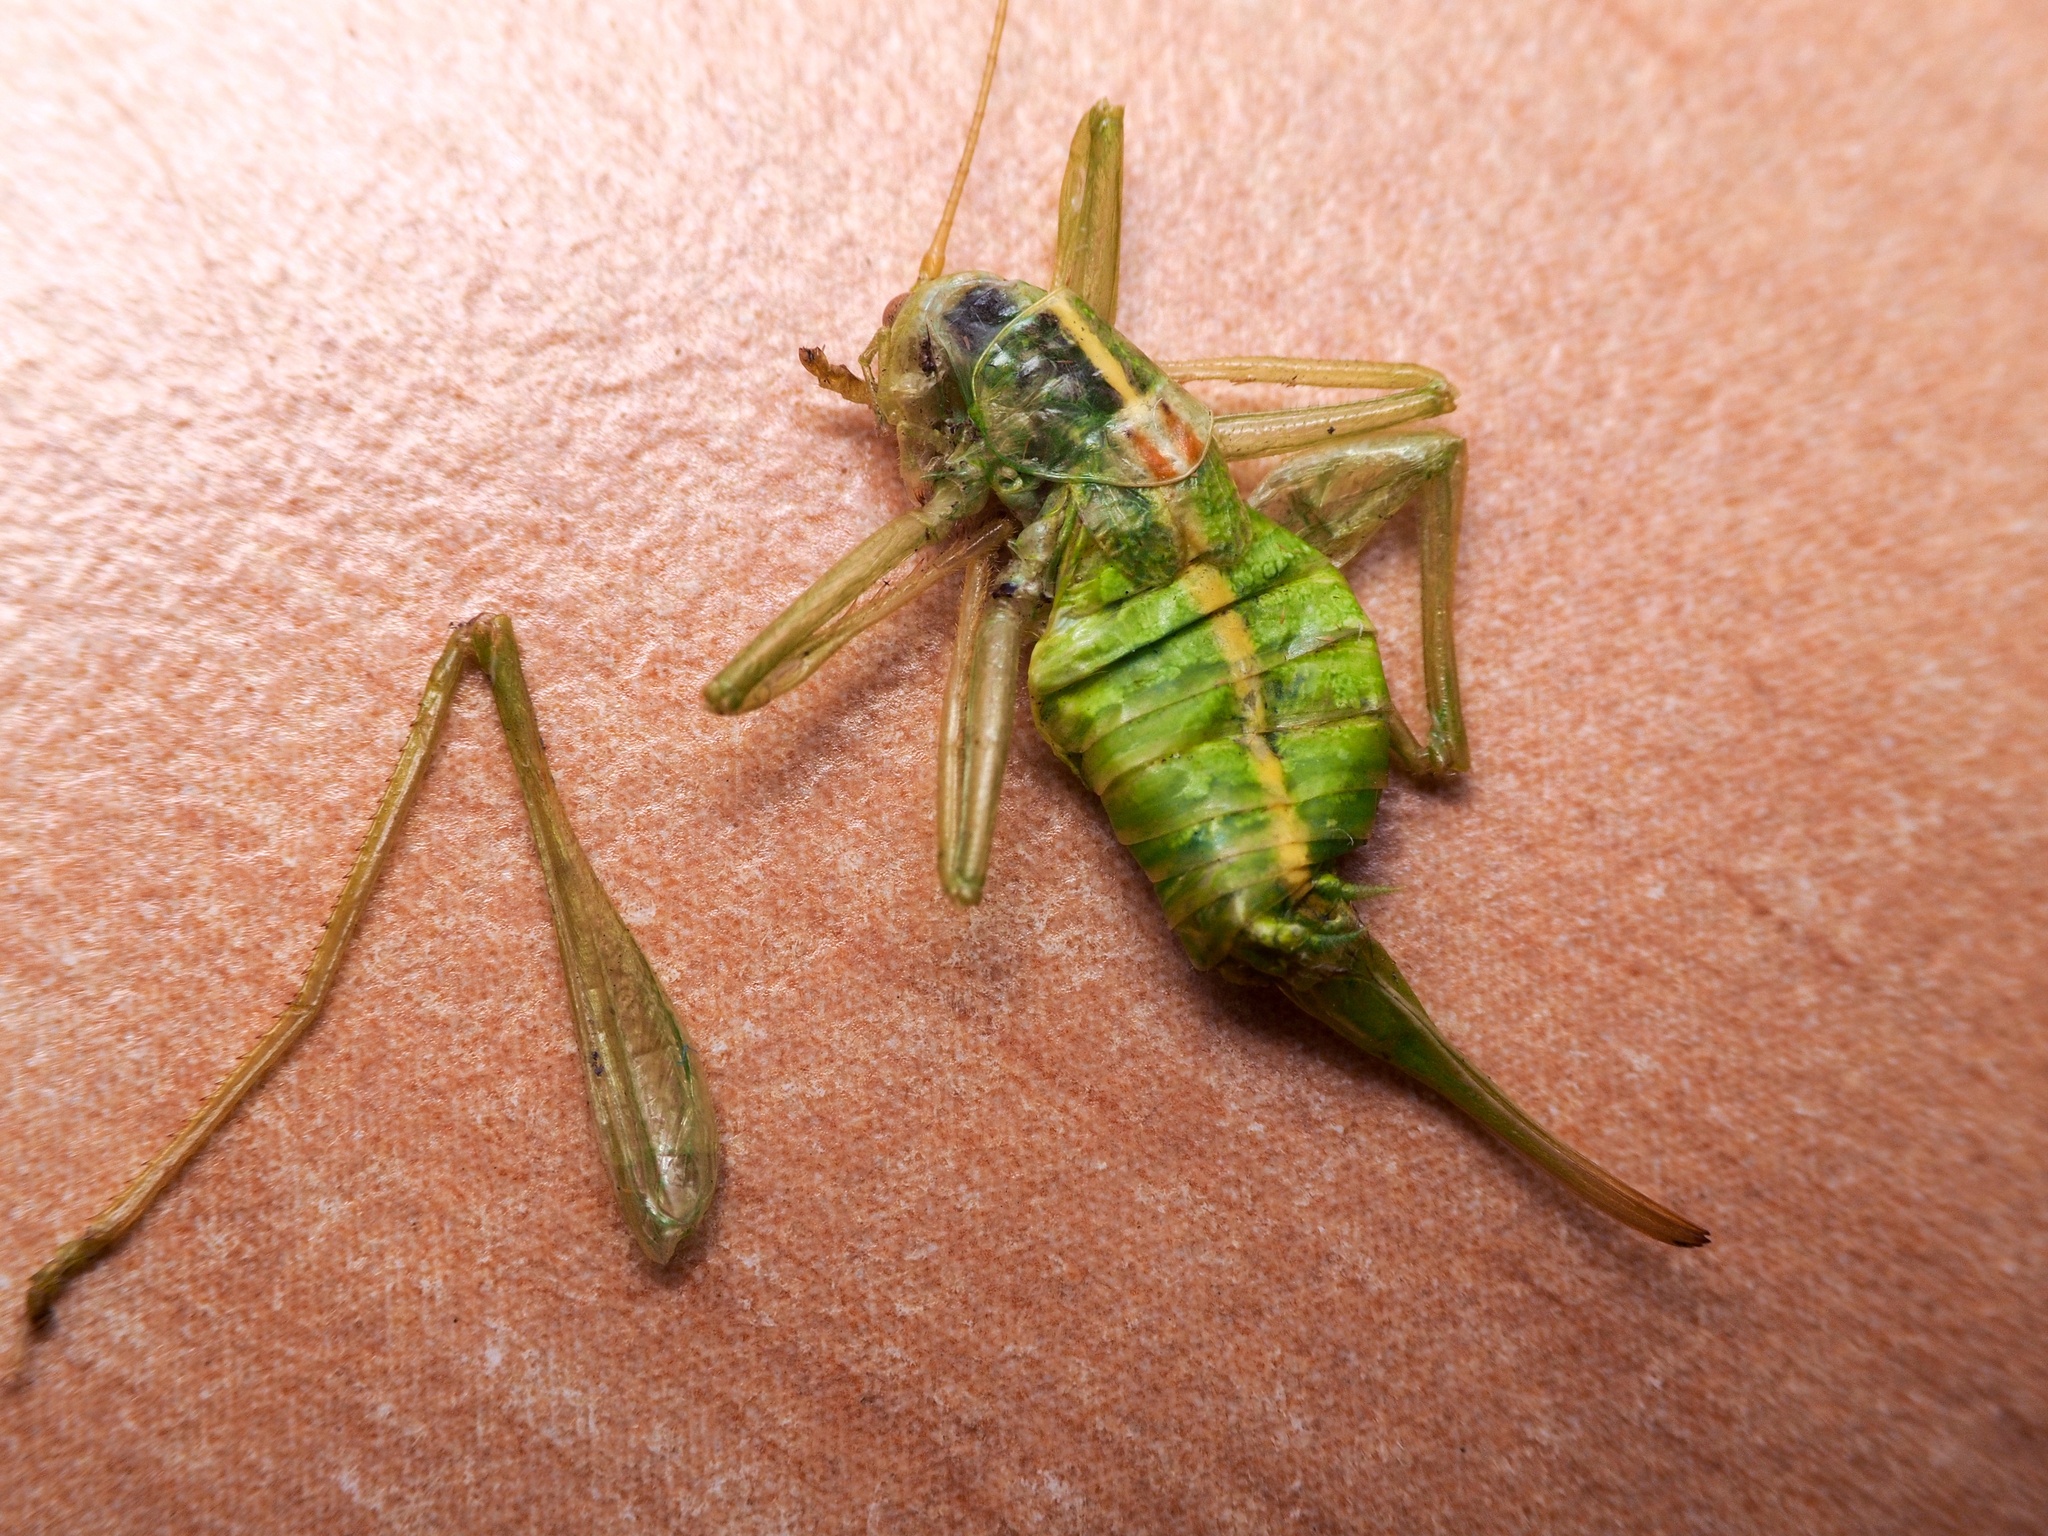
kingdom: Animalia
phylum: Arthropoda
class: Insecta
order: Orthoptera
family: Tettigoniidae
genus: Meconema
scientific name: Meconema meridionale
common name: Southern oak bush-cricket
